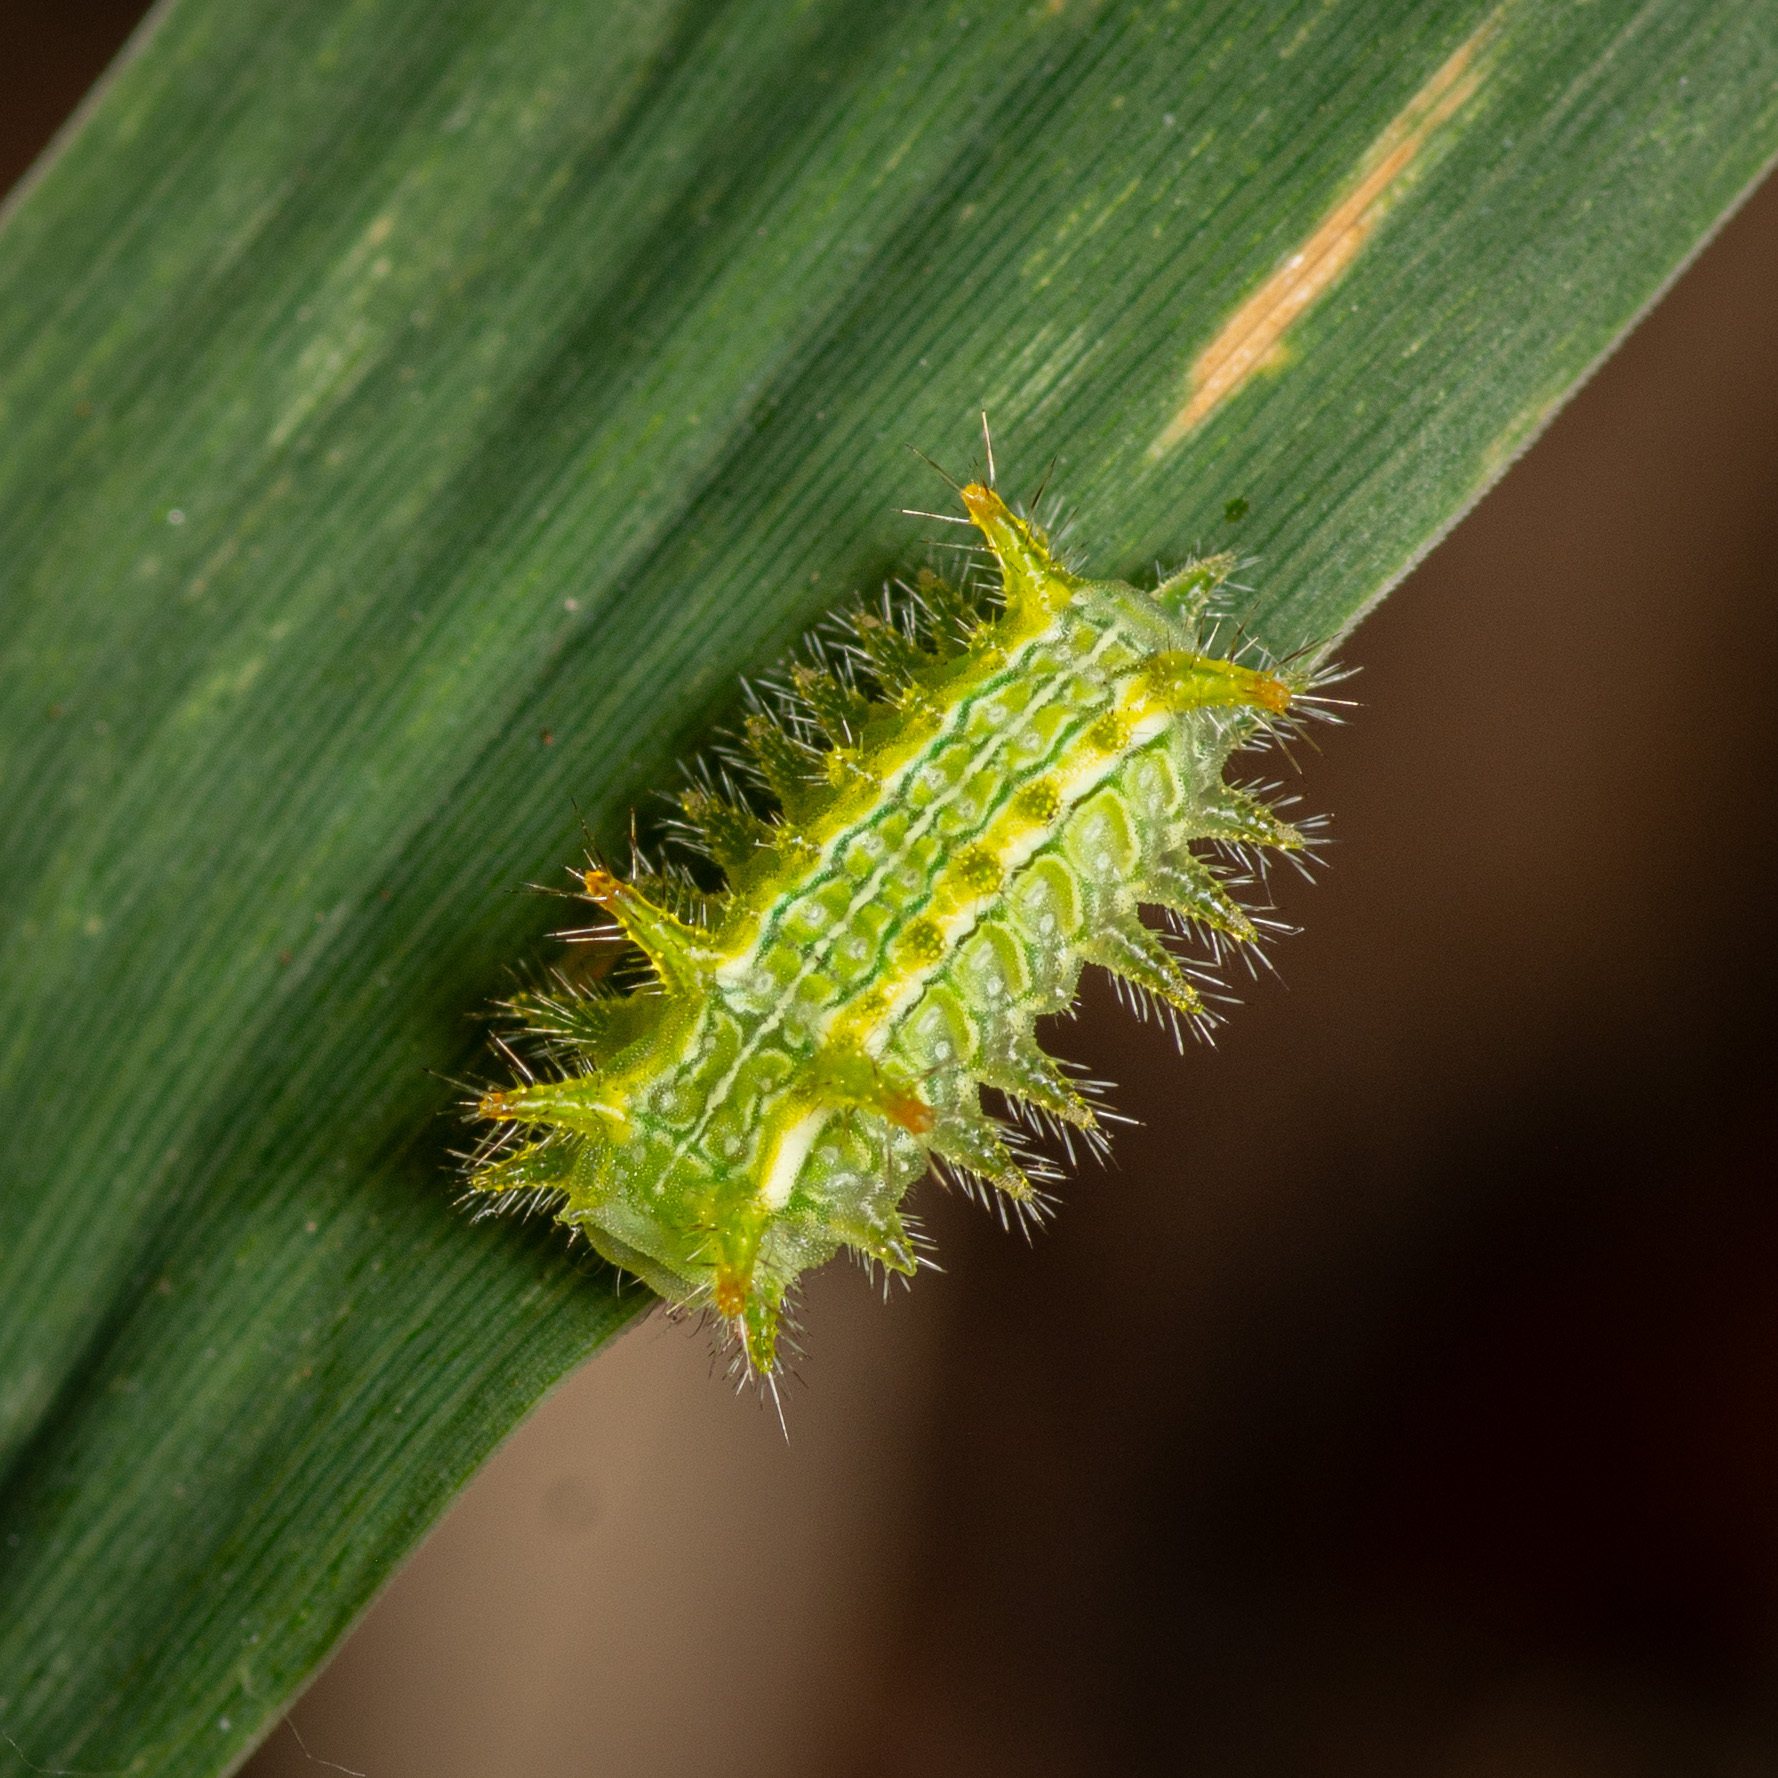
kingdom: Animalia
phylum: Arthropoda
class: Insecta
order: Lepidoptera
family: Limacodidae
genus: Euclea
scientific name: Euclea incisa
